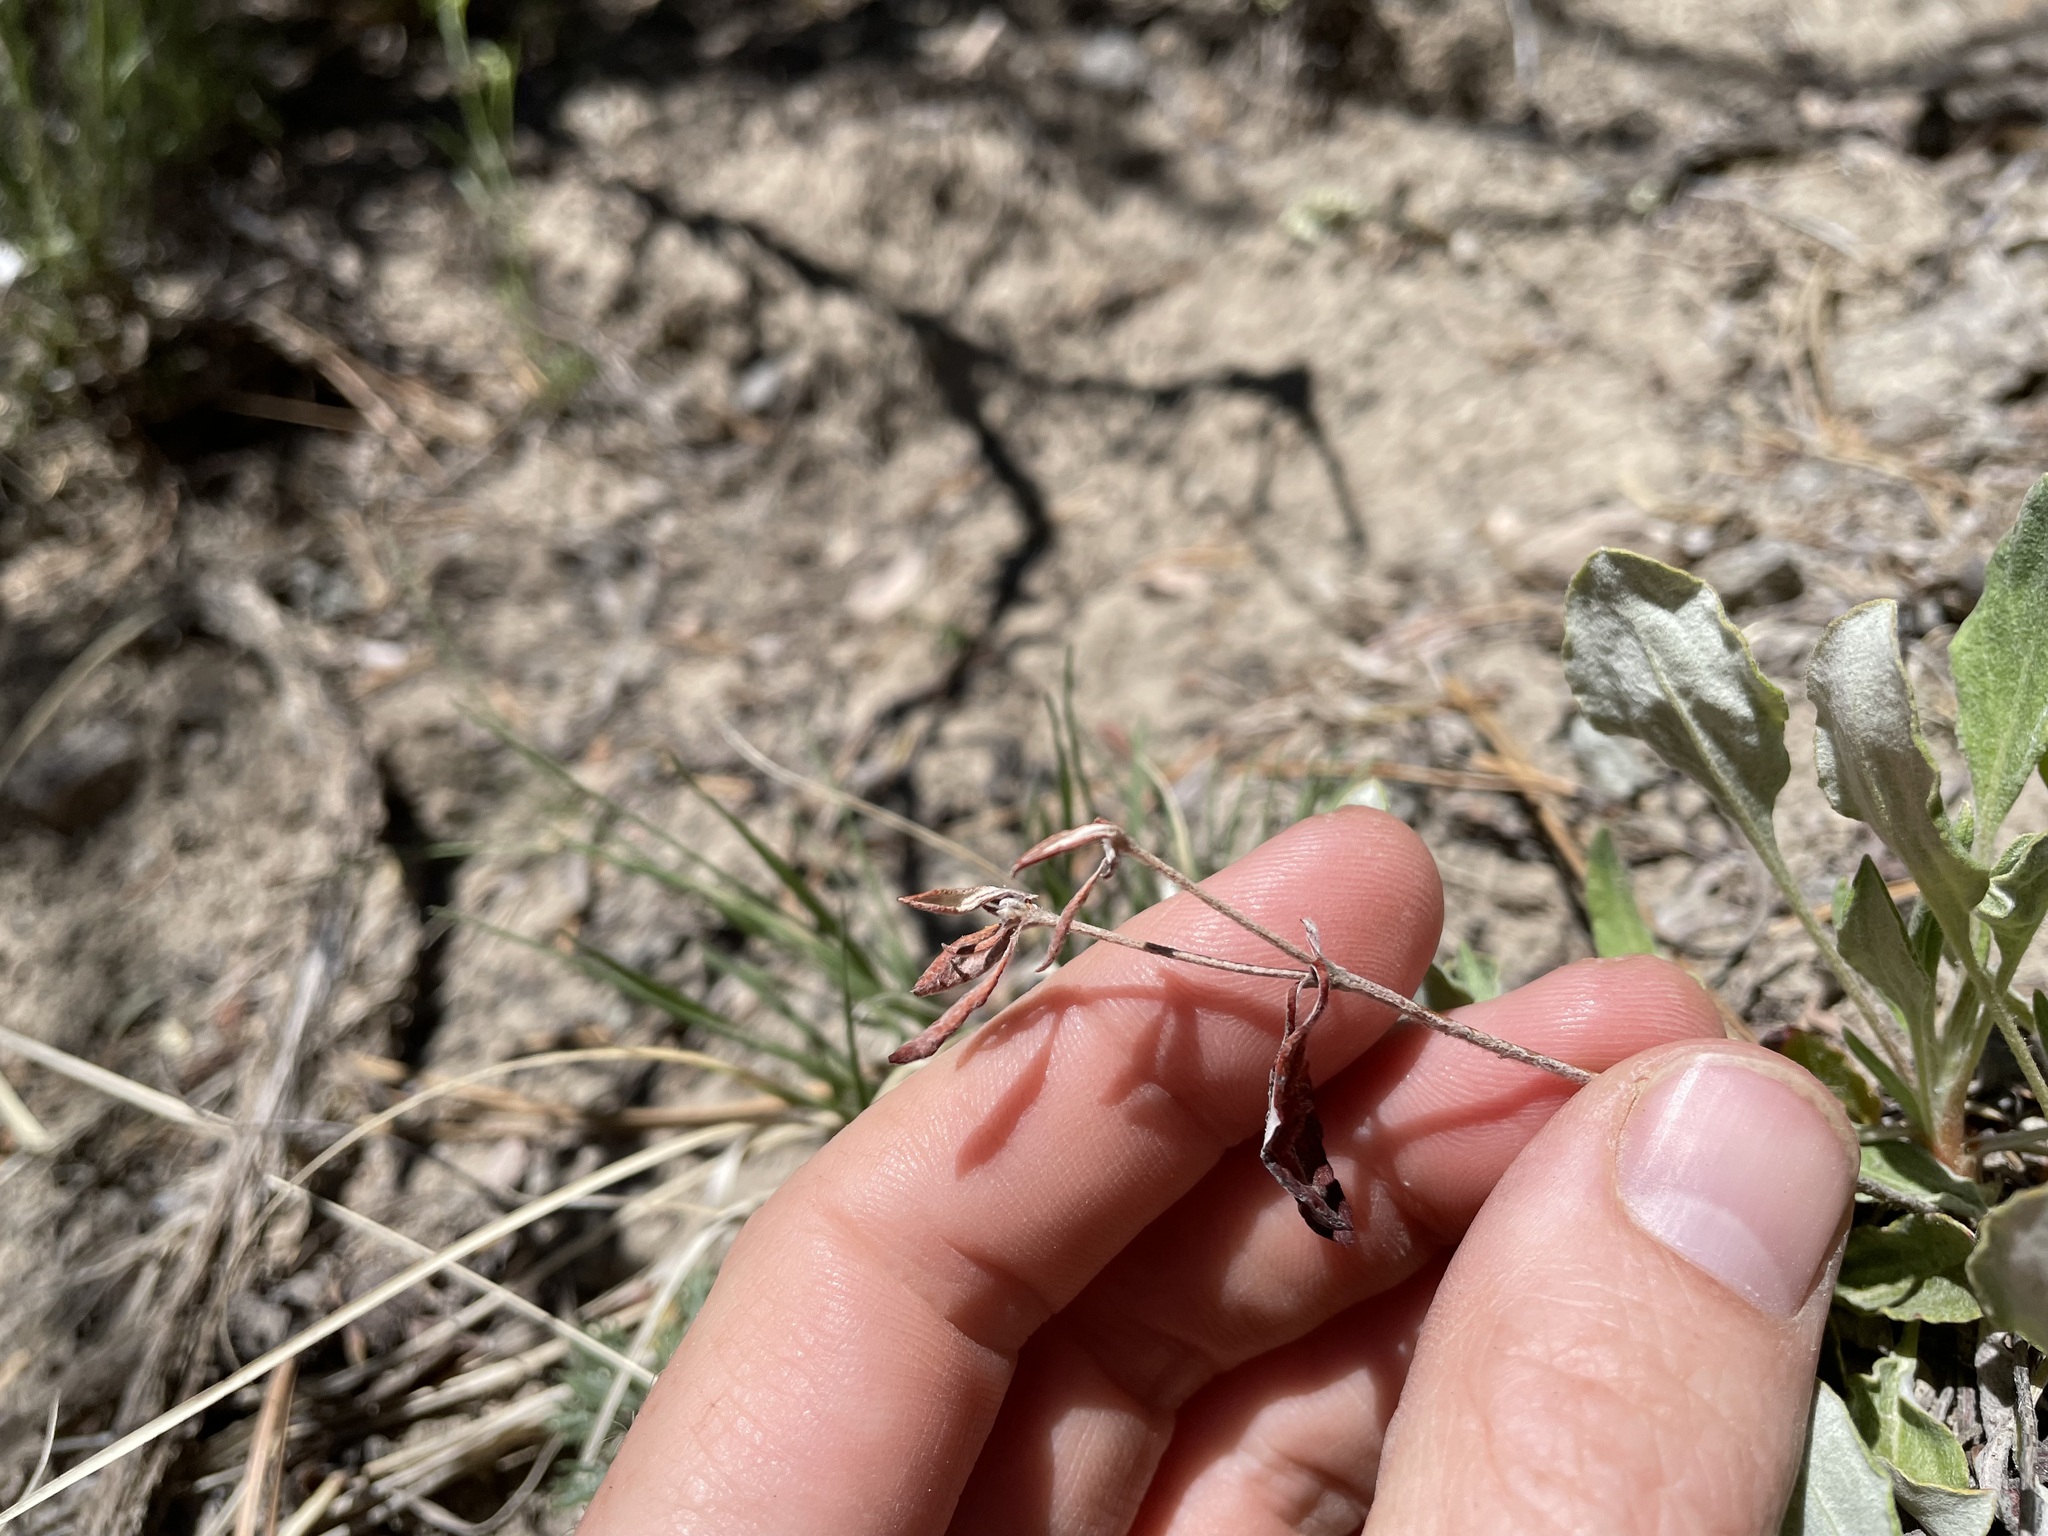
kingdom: Plantae
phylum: Tracheophyta
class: Magnoliopsida
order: Caryophyllales
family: Polygonaceae
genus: Eriogonum
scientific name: Eriogonum jamesii
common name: Antelope-sage
